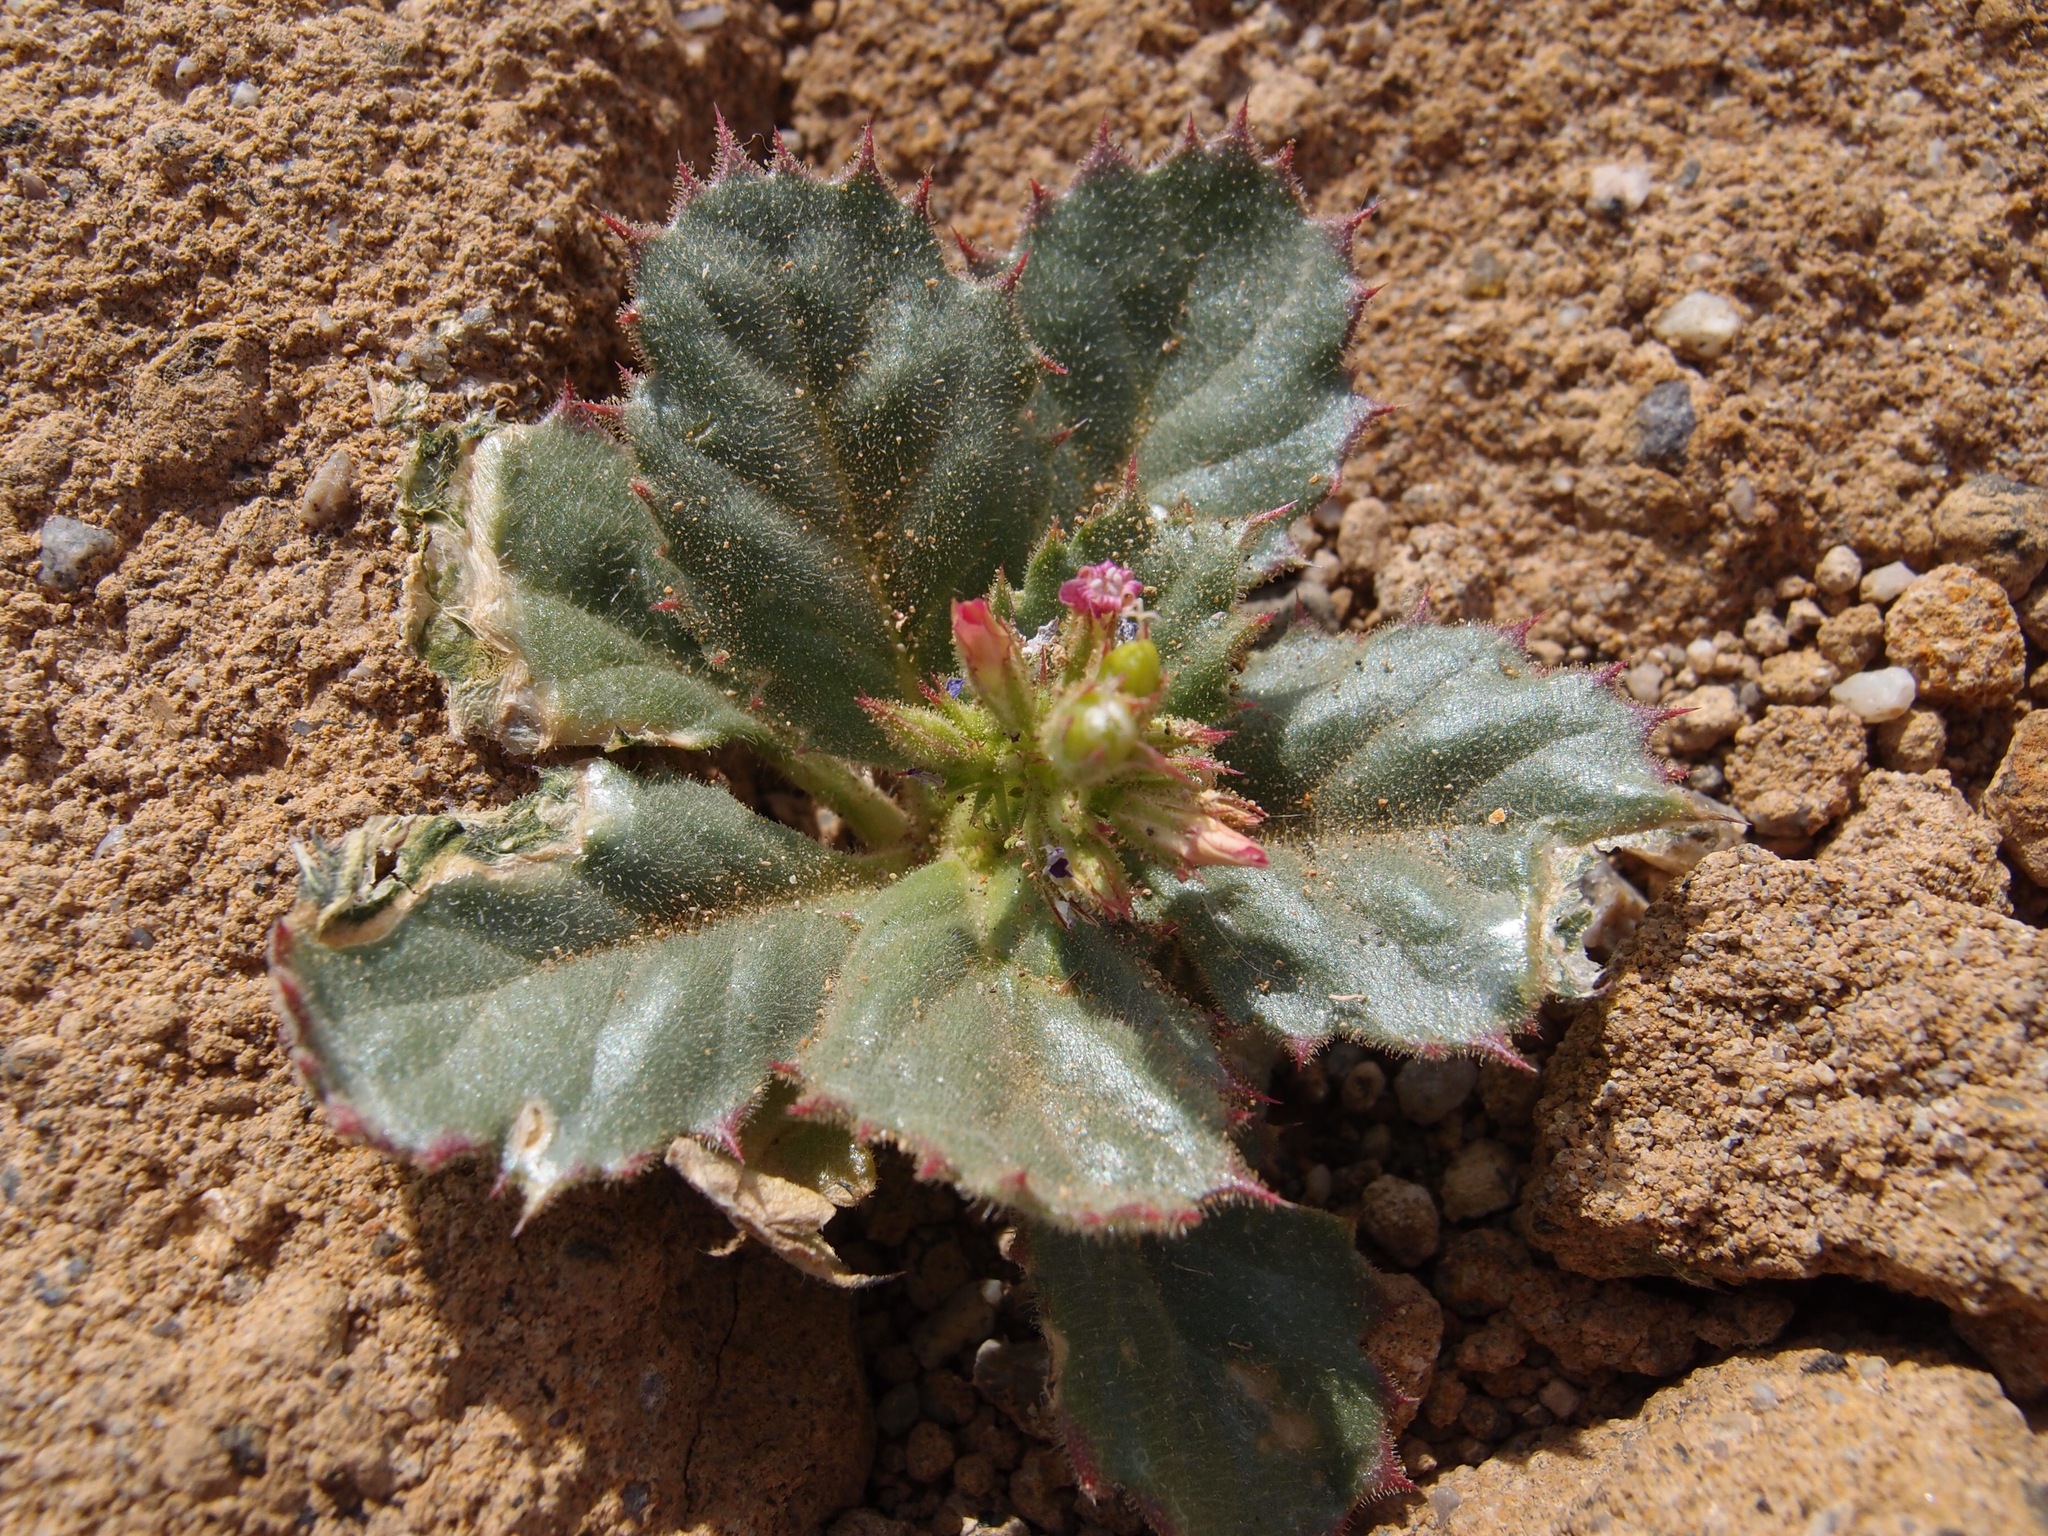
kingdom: Plantae
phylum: Tracheophyta
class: Magnoliopsida
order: Ericales
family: Polemoniaceae
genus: Aliciella
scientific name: Aliciella latifolia
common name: Broad-leaf gilia
